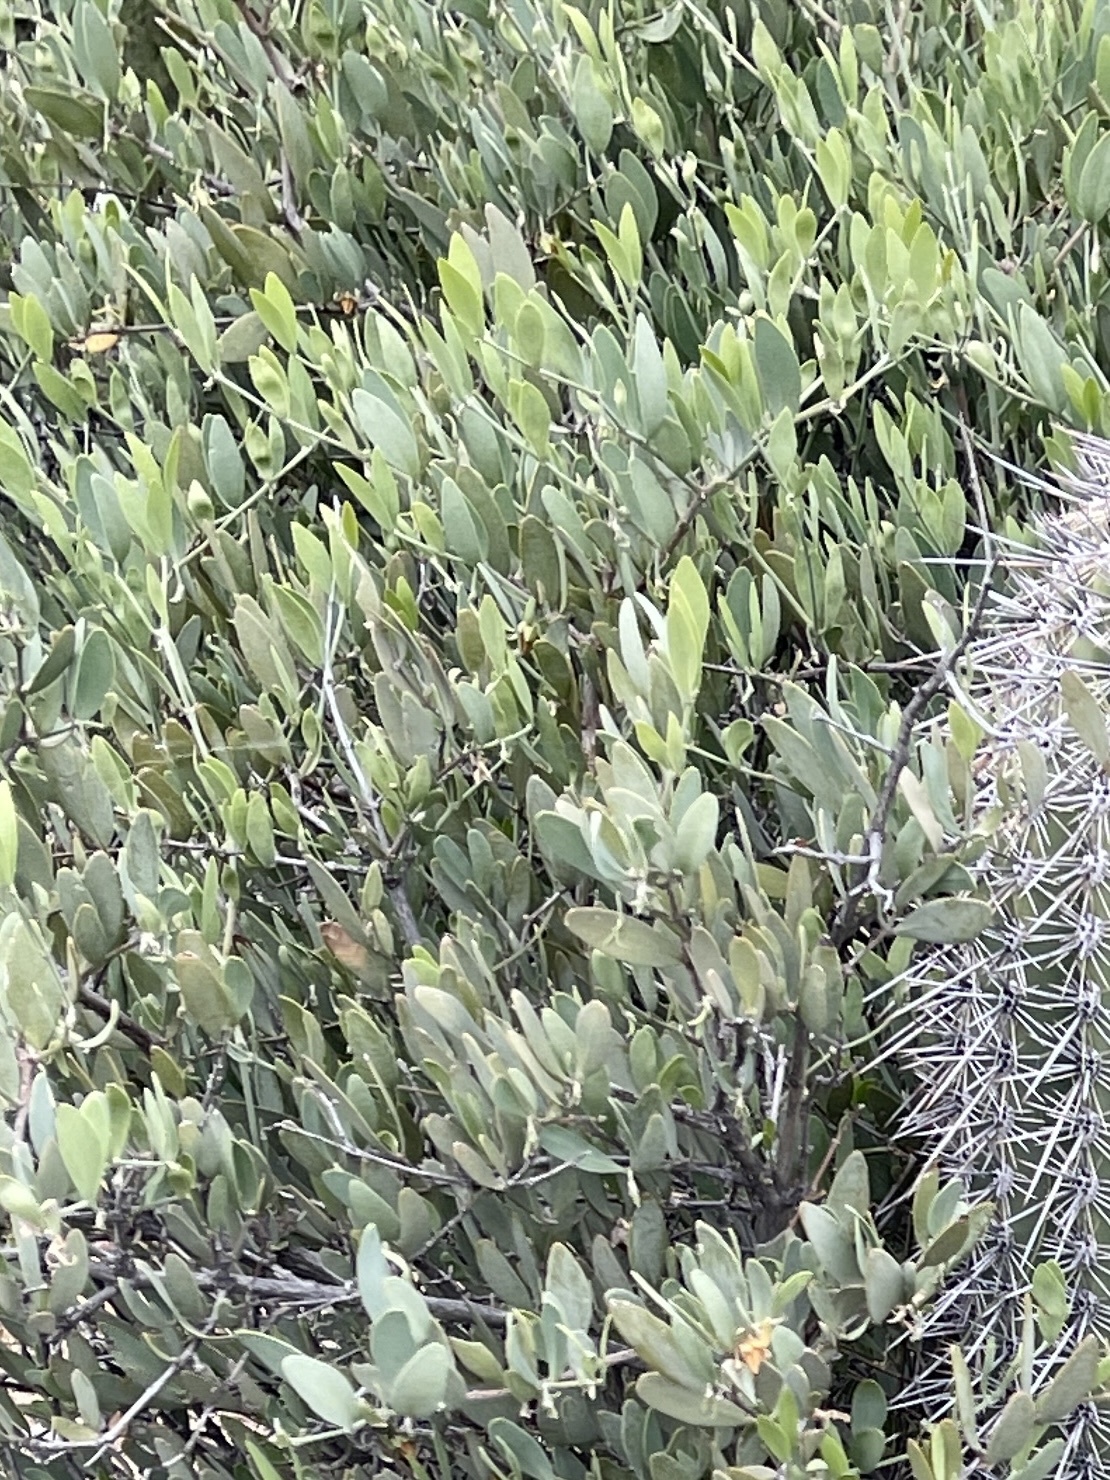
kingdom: Plantae
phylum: Tracheophyta
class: Magnoliopsida
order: Caryophyllales
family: Simmondsiaceae
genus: Simmondsia
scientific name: Simmondsia chinensis
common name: Jojoba
